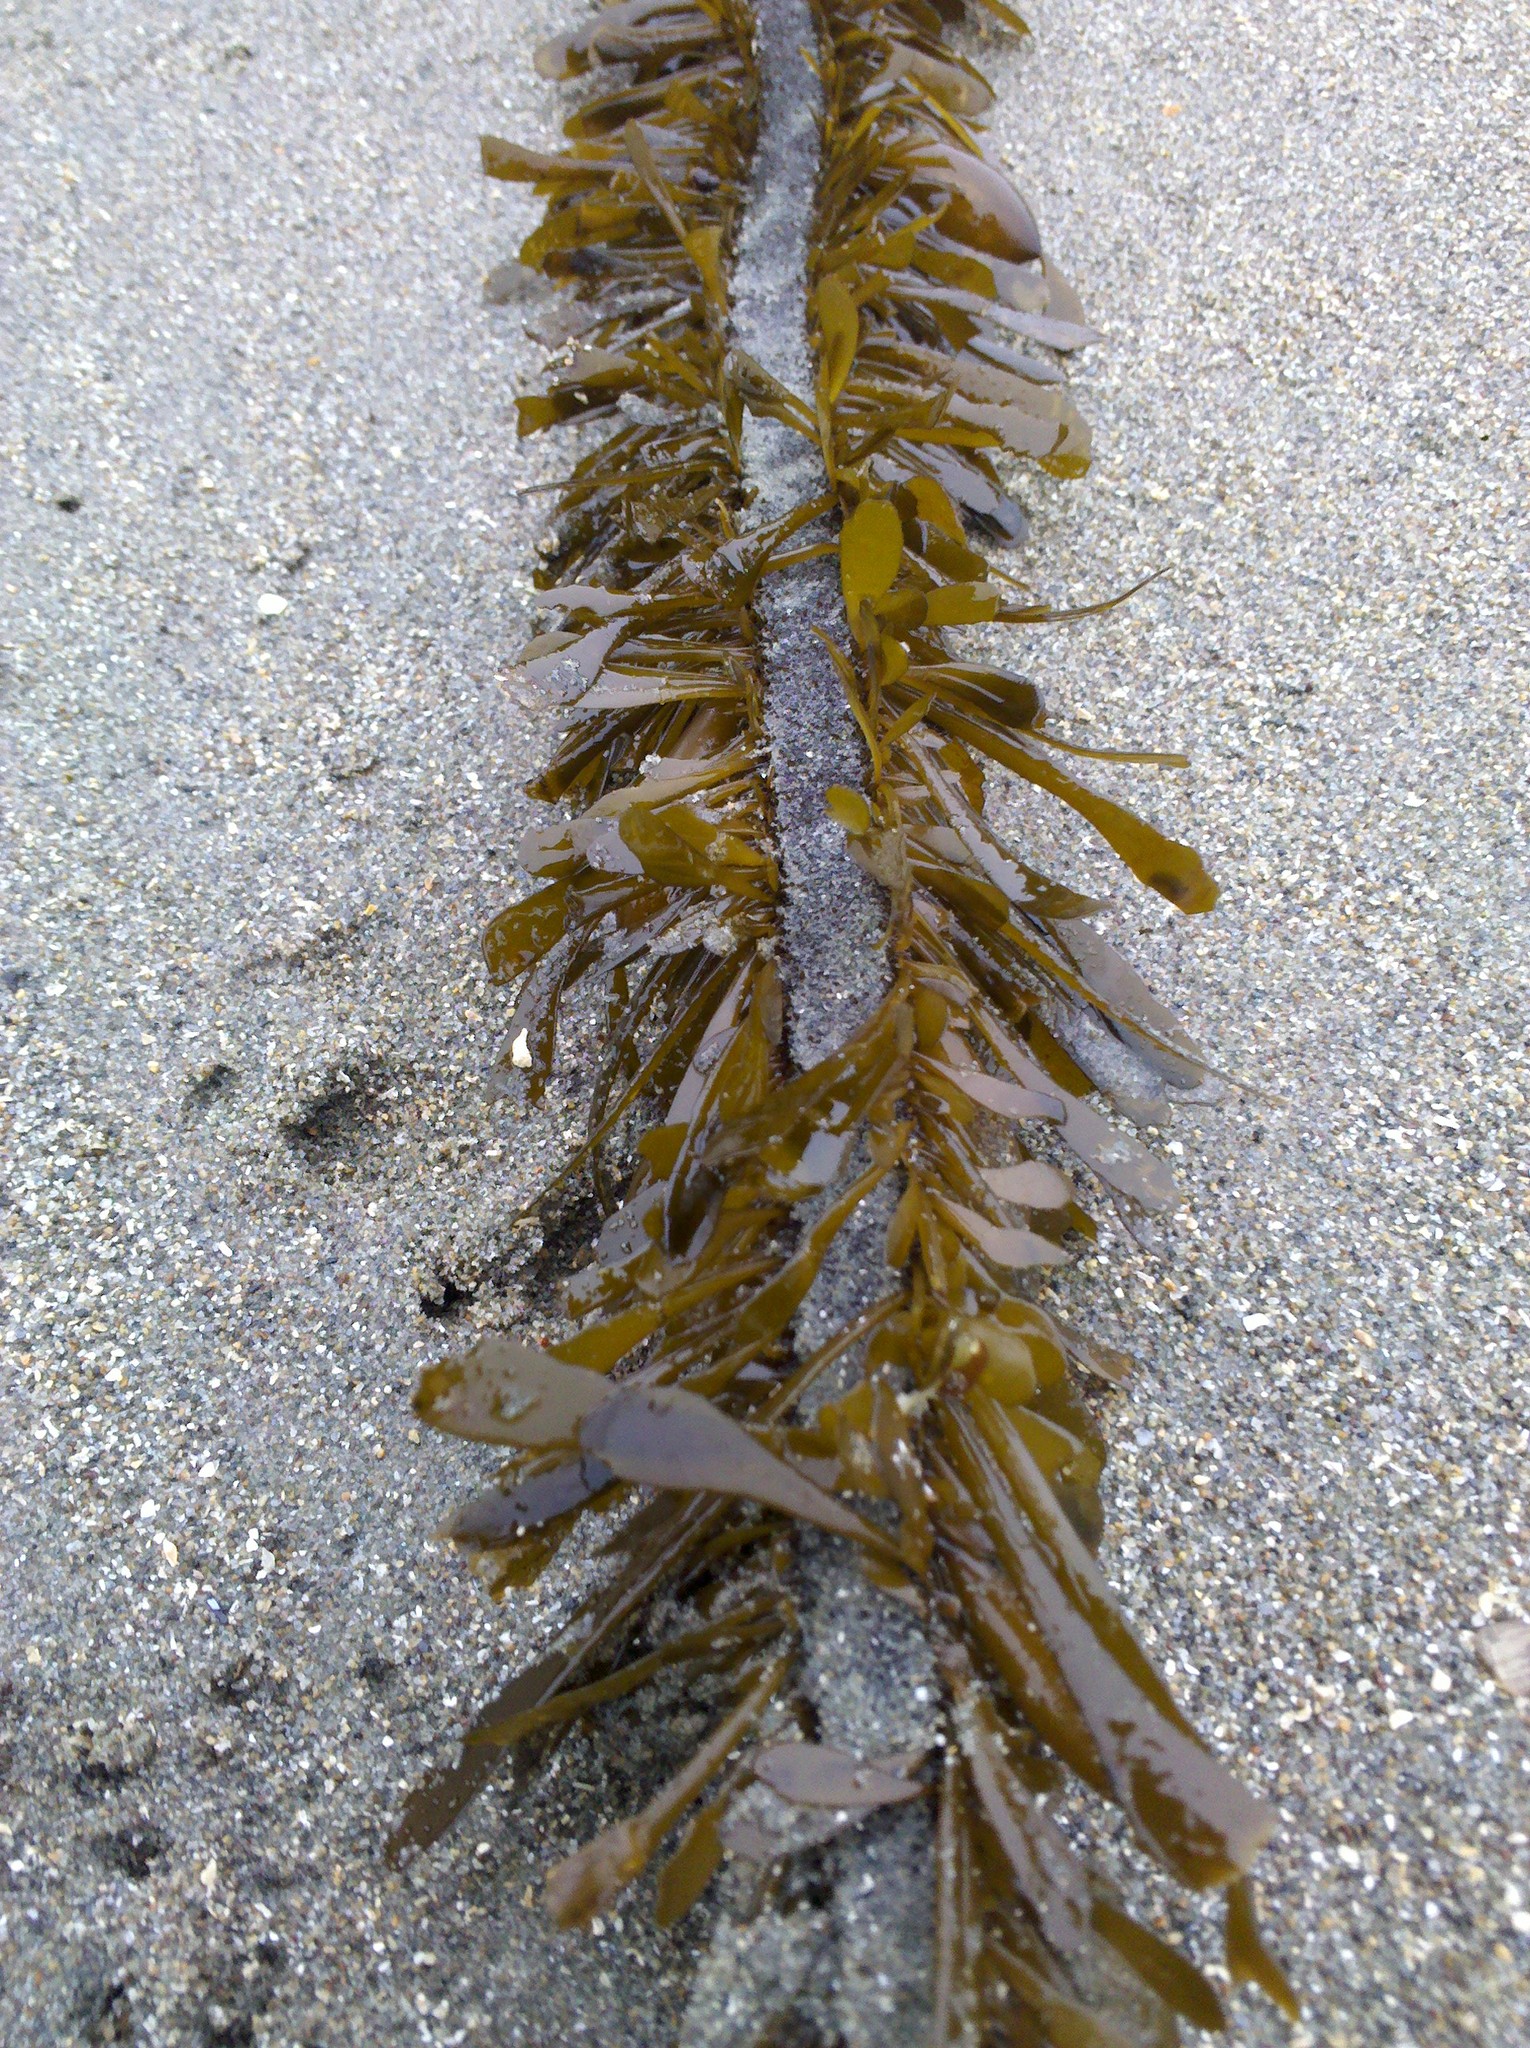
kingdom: Chromista
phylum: Ochrophyta
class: Phaeophyceae
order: Laminariales
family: Lessoniaceae
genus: Egregia
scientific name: Egregia menziesii
